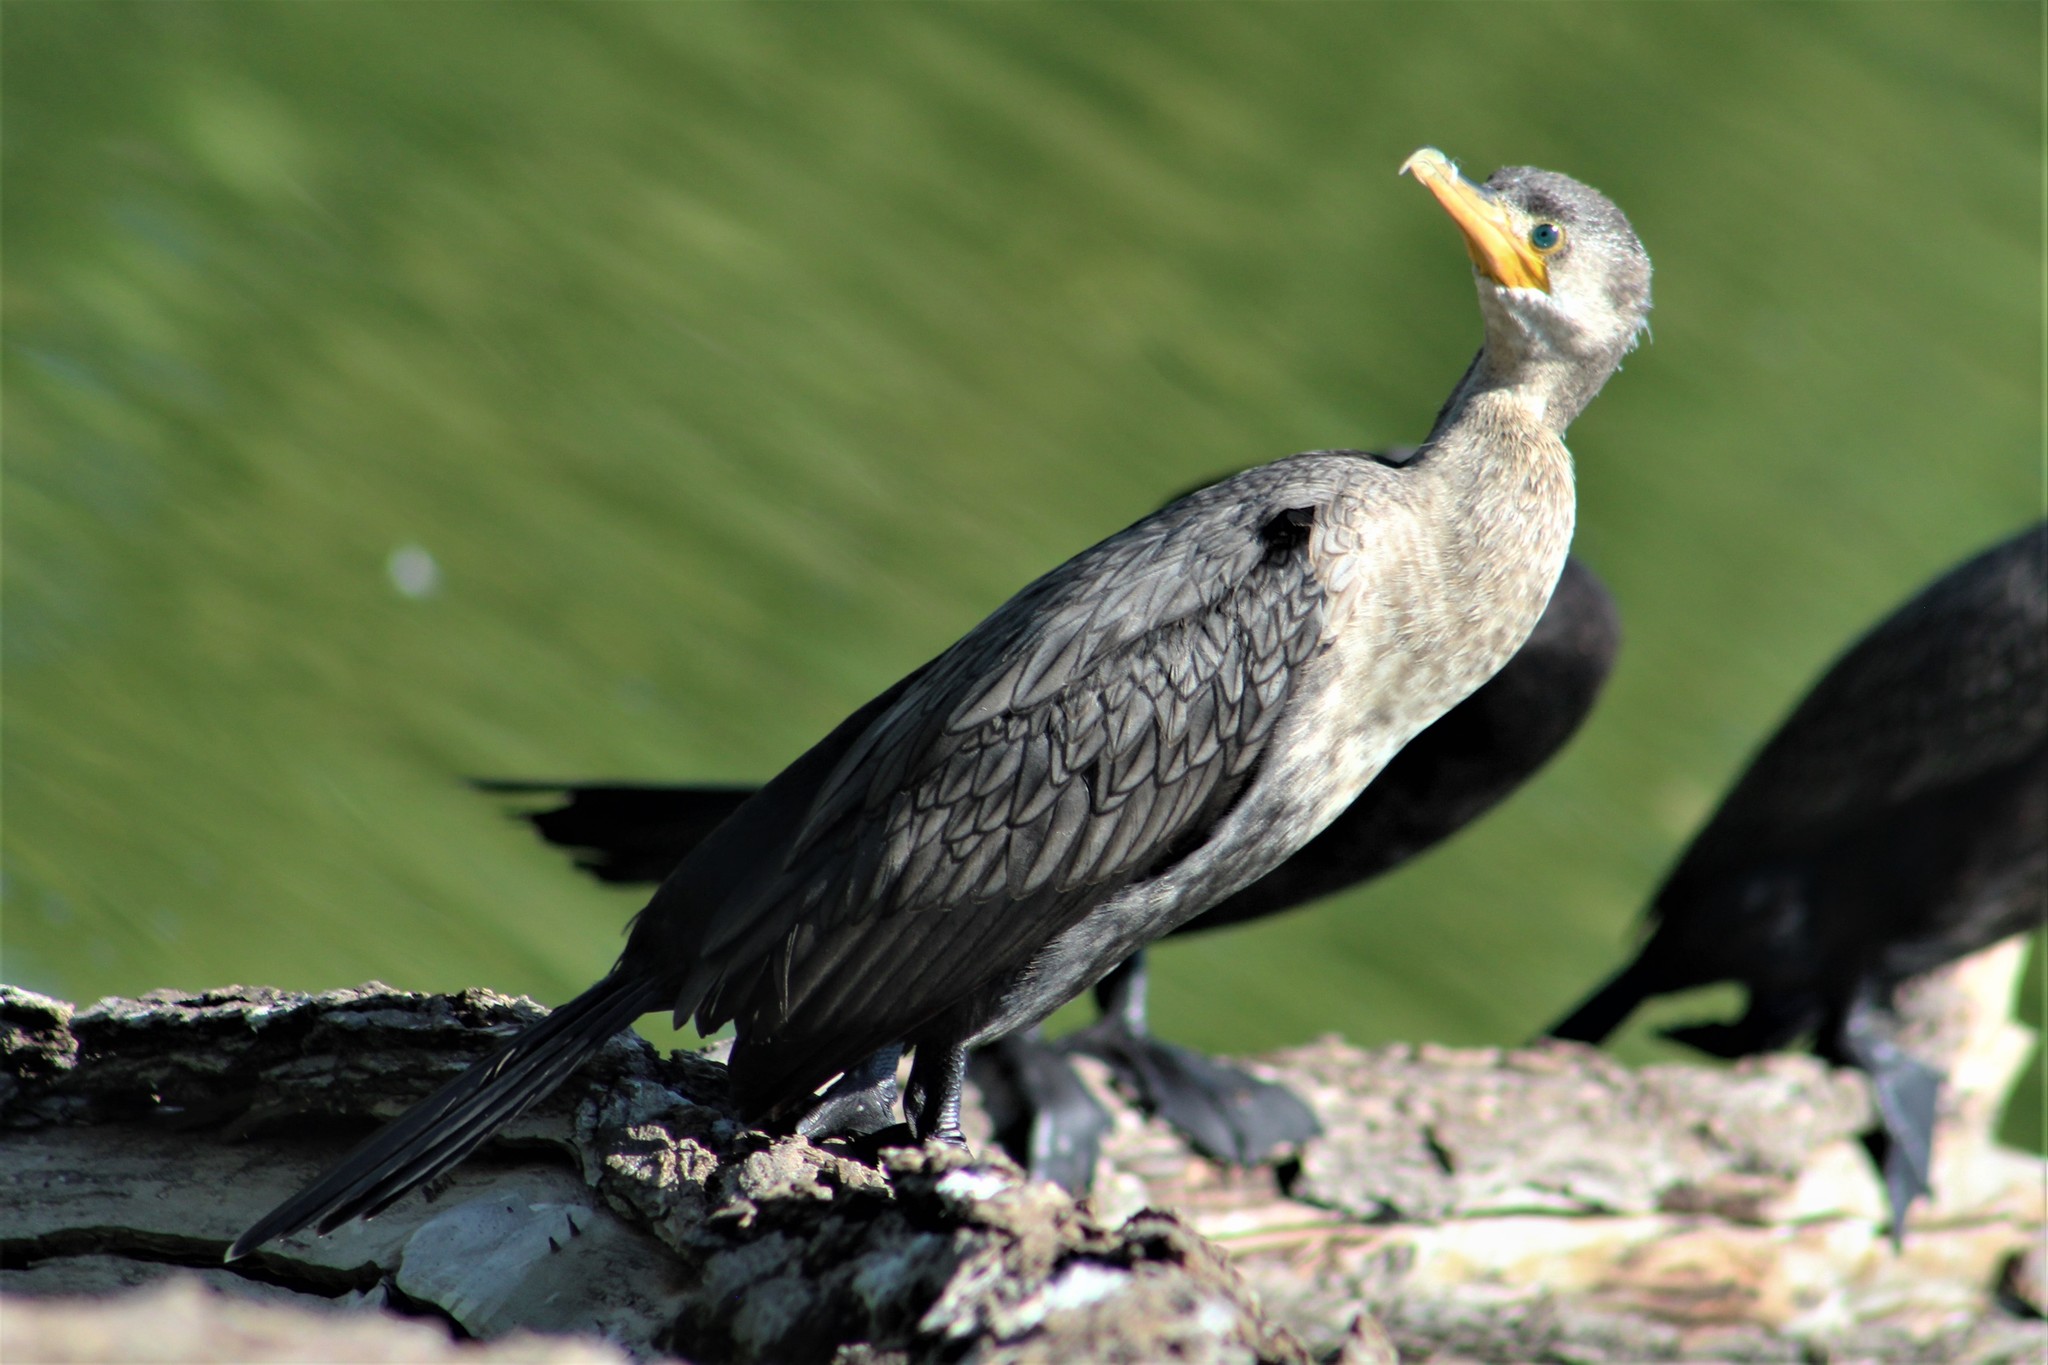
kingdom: Animalia
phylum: Chordata
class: Aves
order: Suliformes
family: Phalacrocoracidae
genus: Phalacrocorax
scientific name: Phalacrocorax brasilianus
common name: Neotropic cormorant
